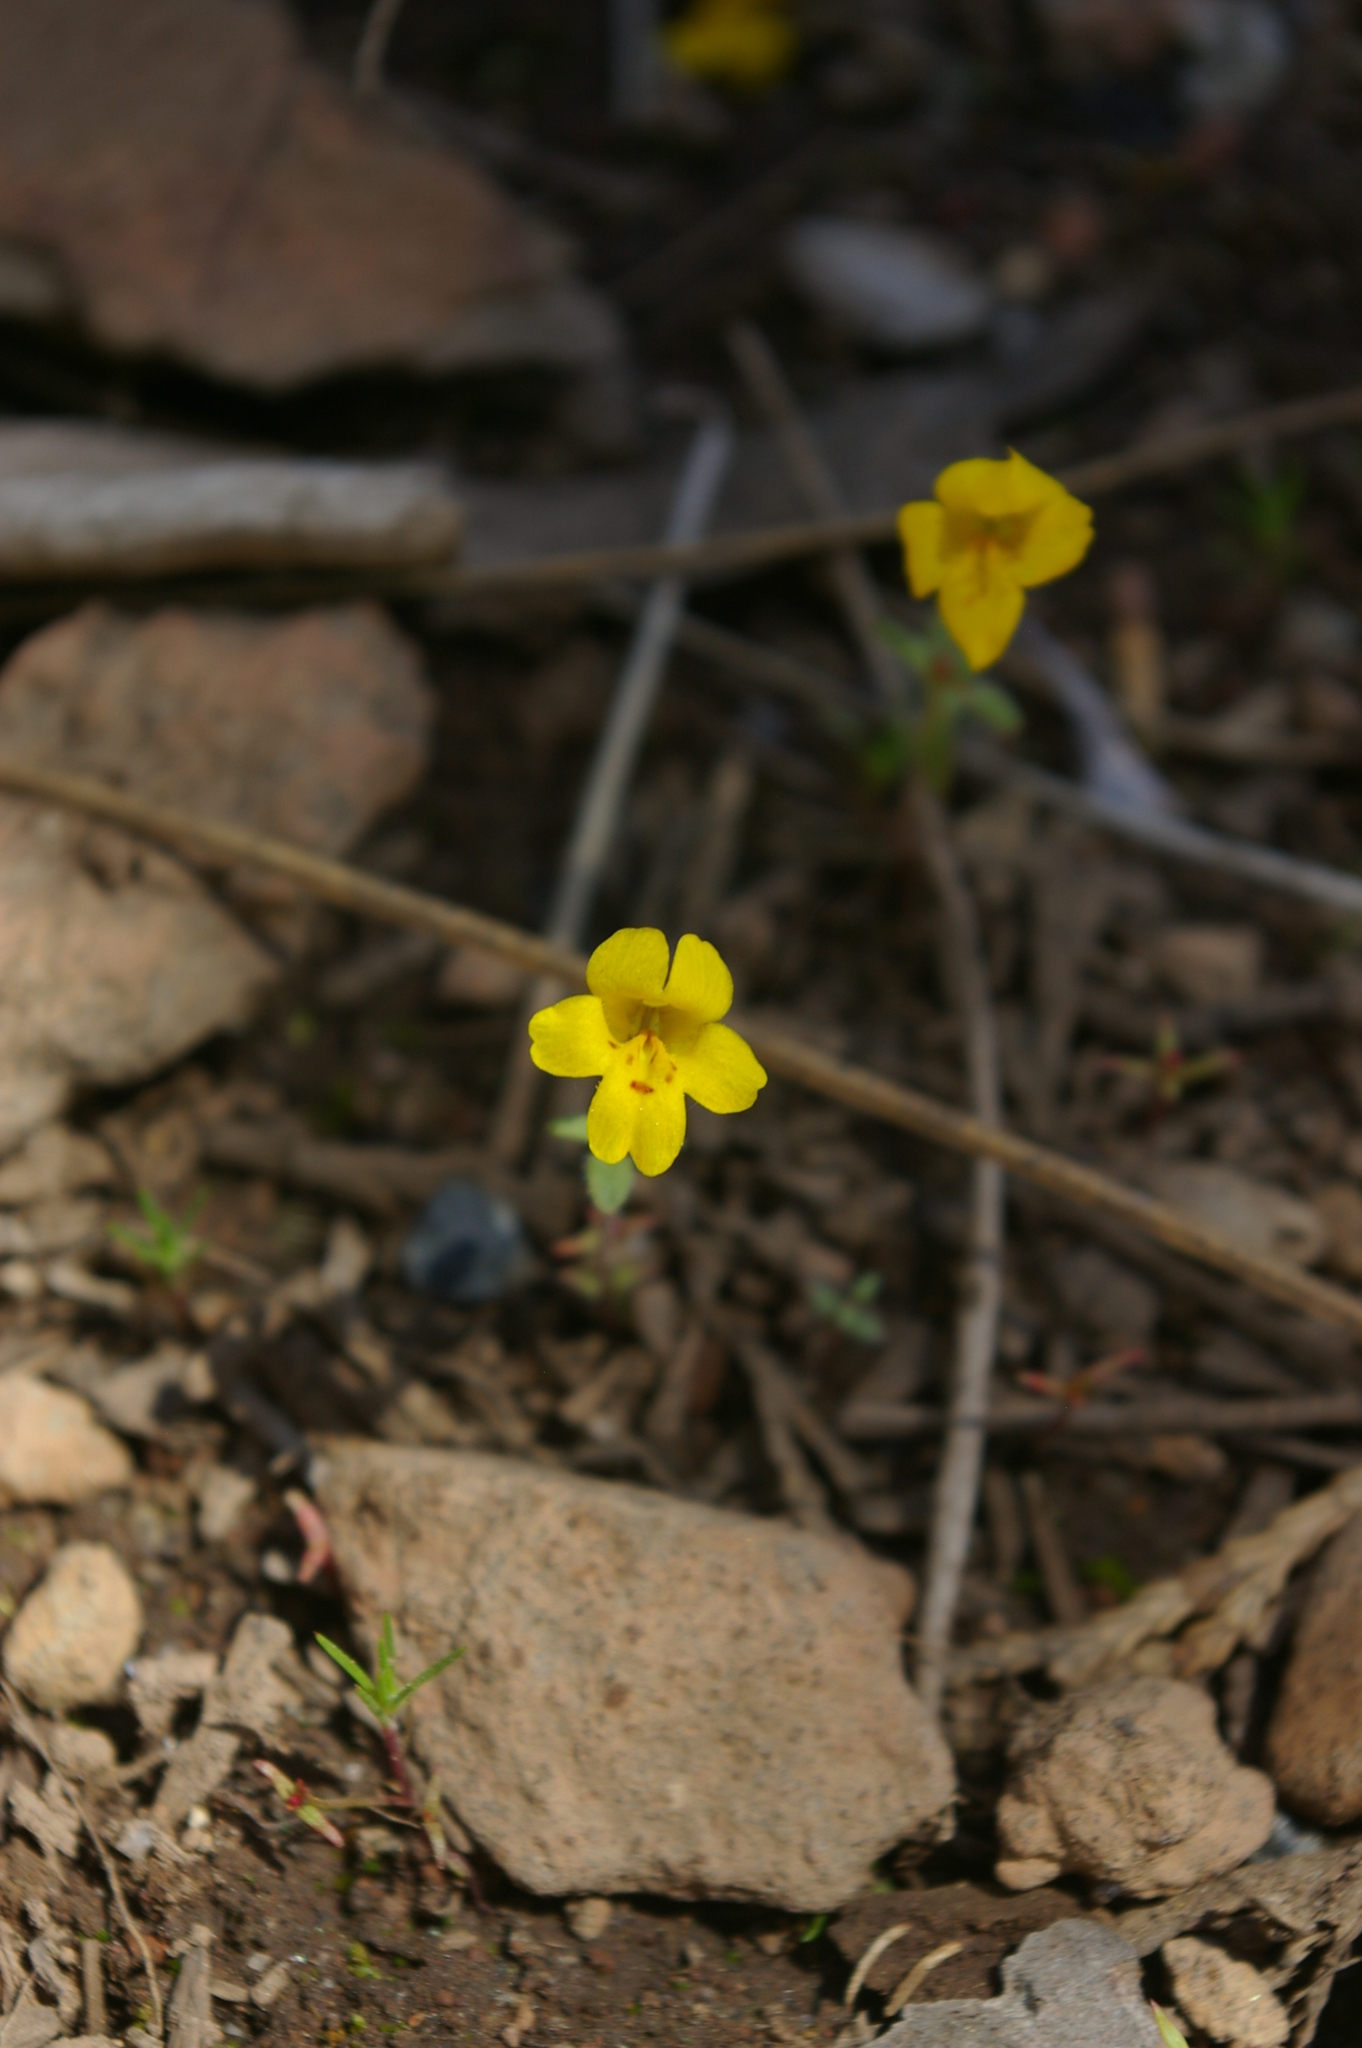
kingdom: Plantae
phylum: Tracheophyta
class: Magnoliopsida
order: Lamiales
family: Phrymaceae
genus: Erythranthe
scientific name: Erythranthe montioides
